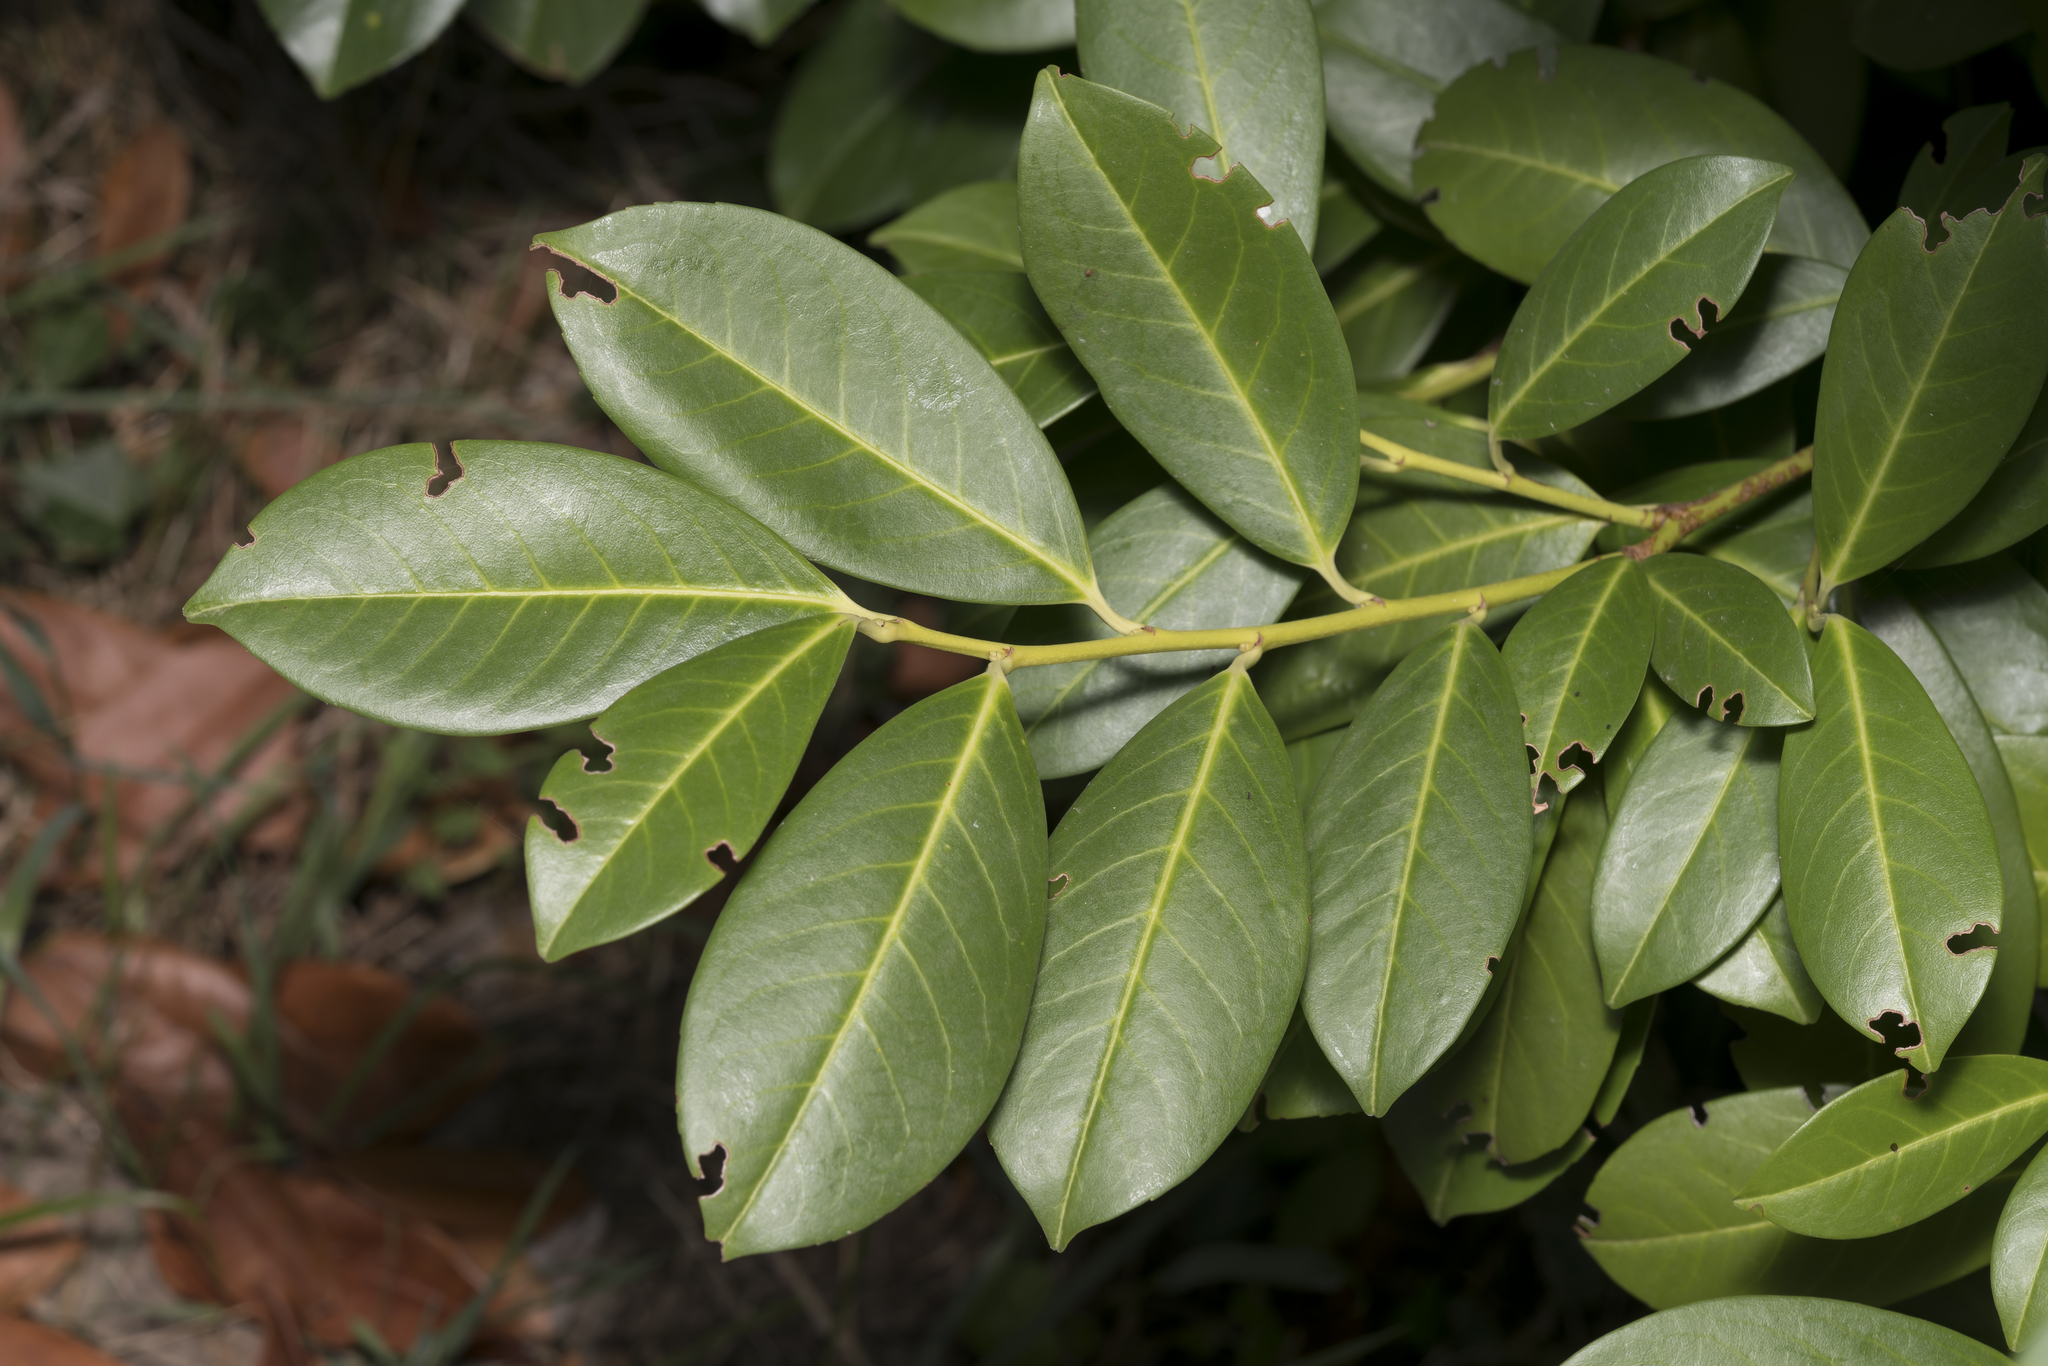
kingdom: Plantae
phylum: Tracheophyta
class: Magnoliopsida
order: Rosales
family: Rosaceae
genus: Prunus
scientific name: Prunus laurocerasus
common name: Cherry laurel
